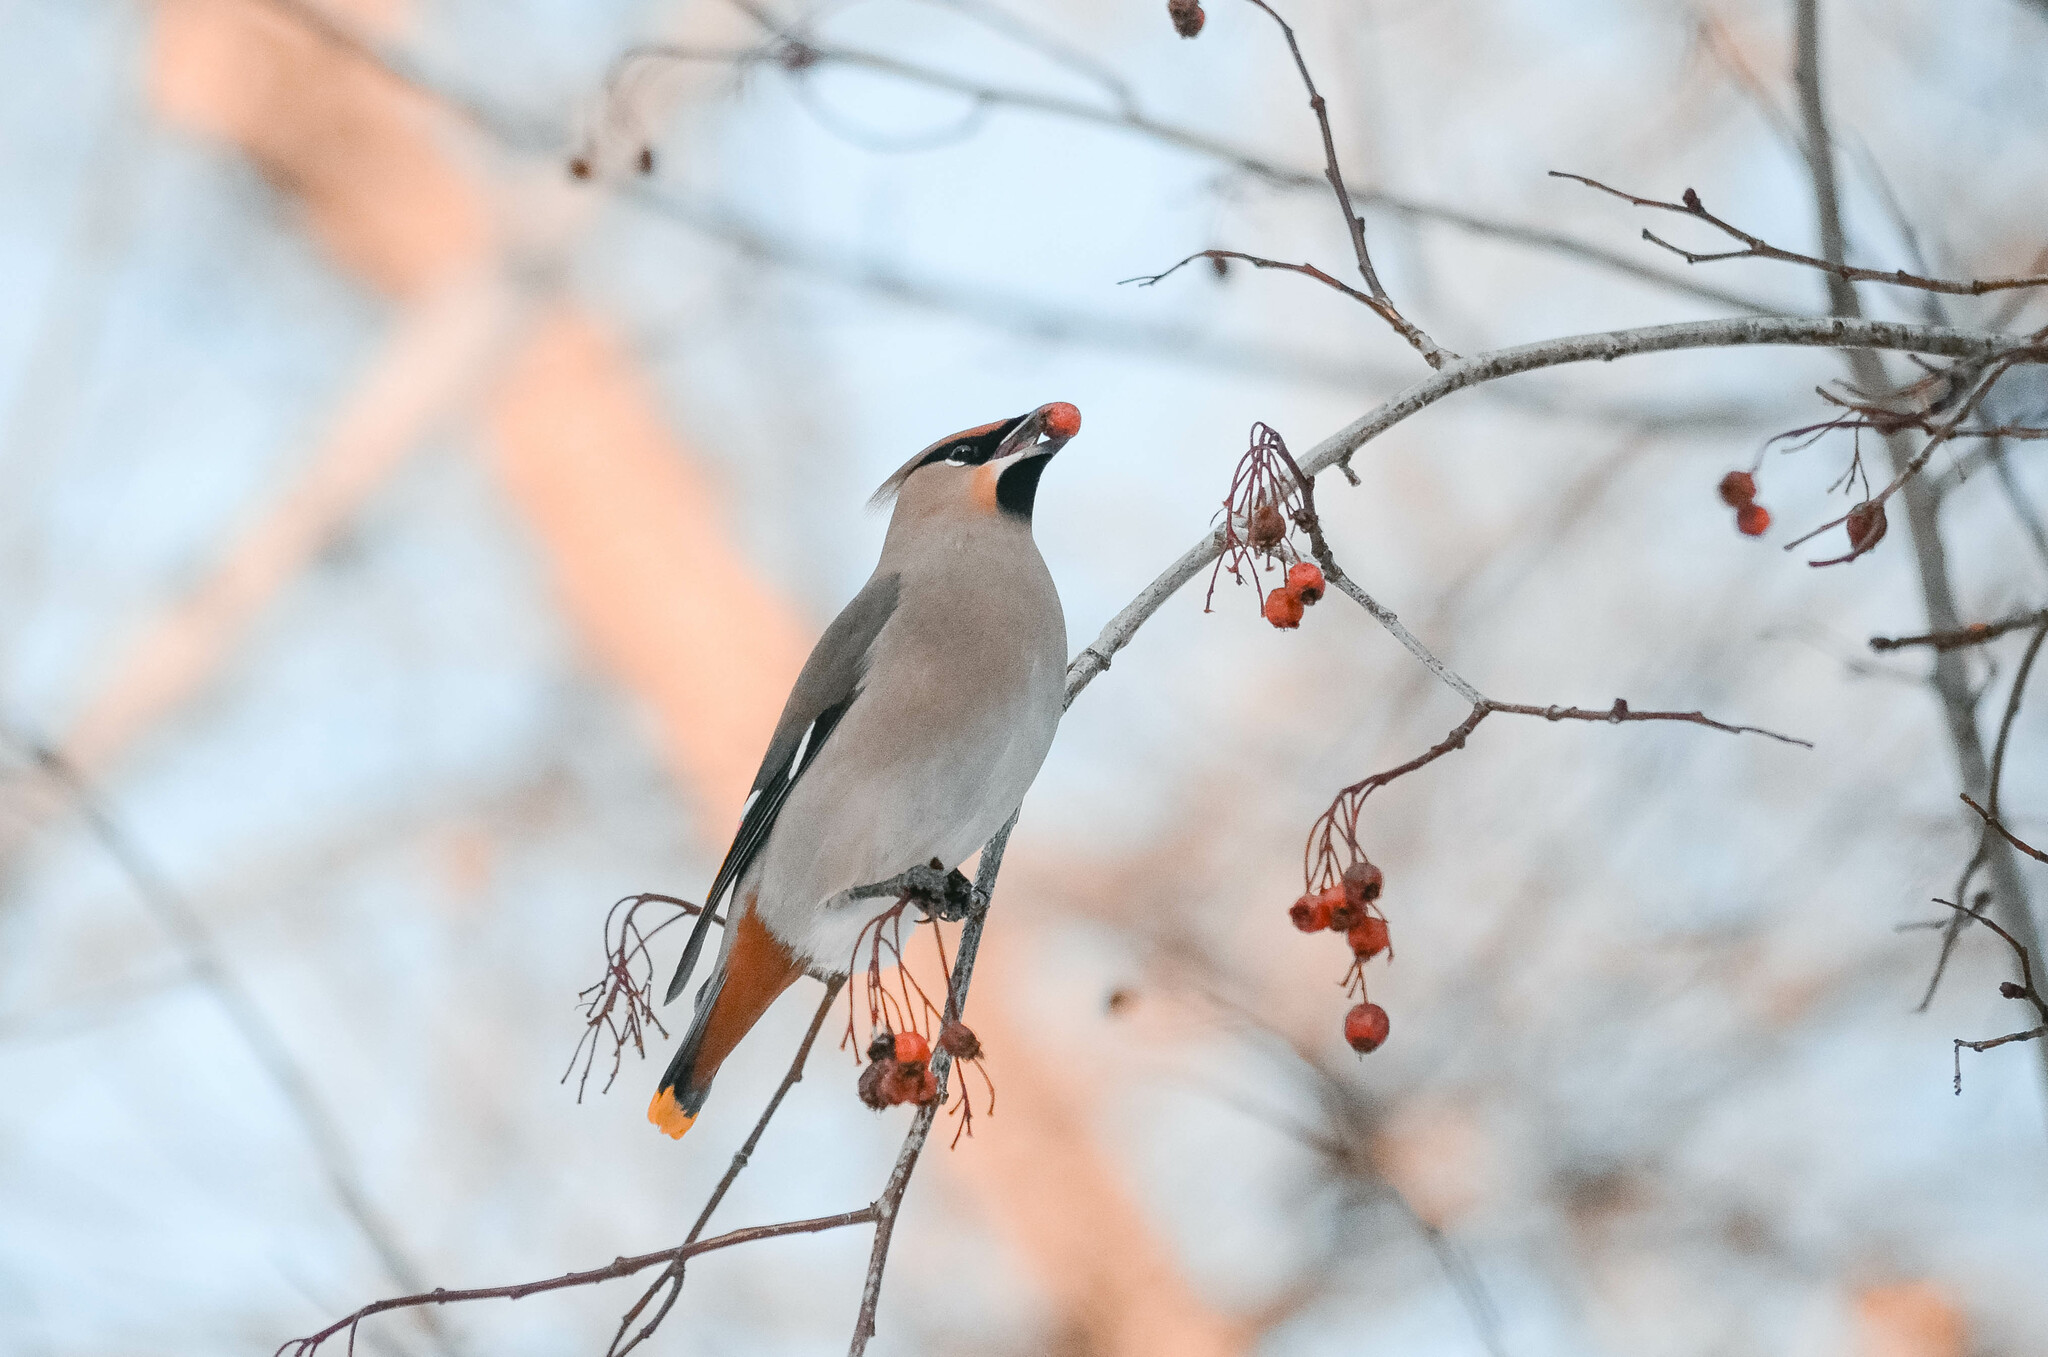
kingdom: Animalia
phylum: Chordata
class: Aves
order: Passeriformes
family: Bombycillidae
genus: Bombycilla
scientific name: Bombycilla garrulus
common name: Bohemian waxwing
